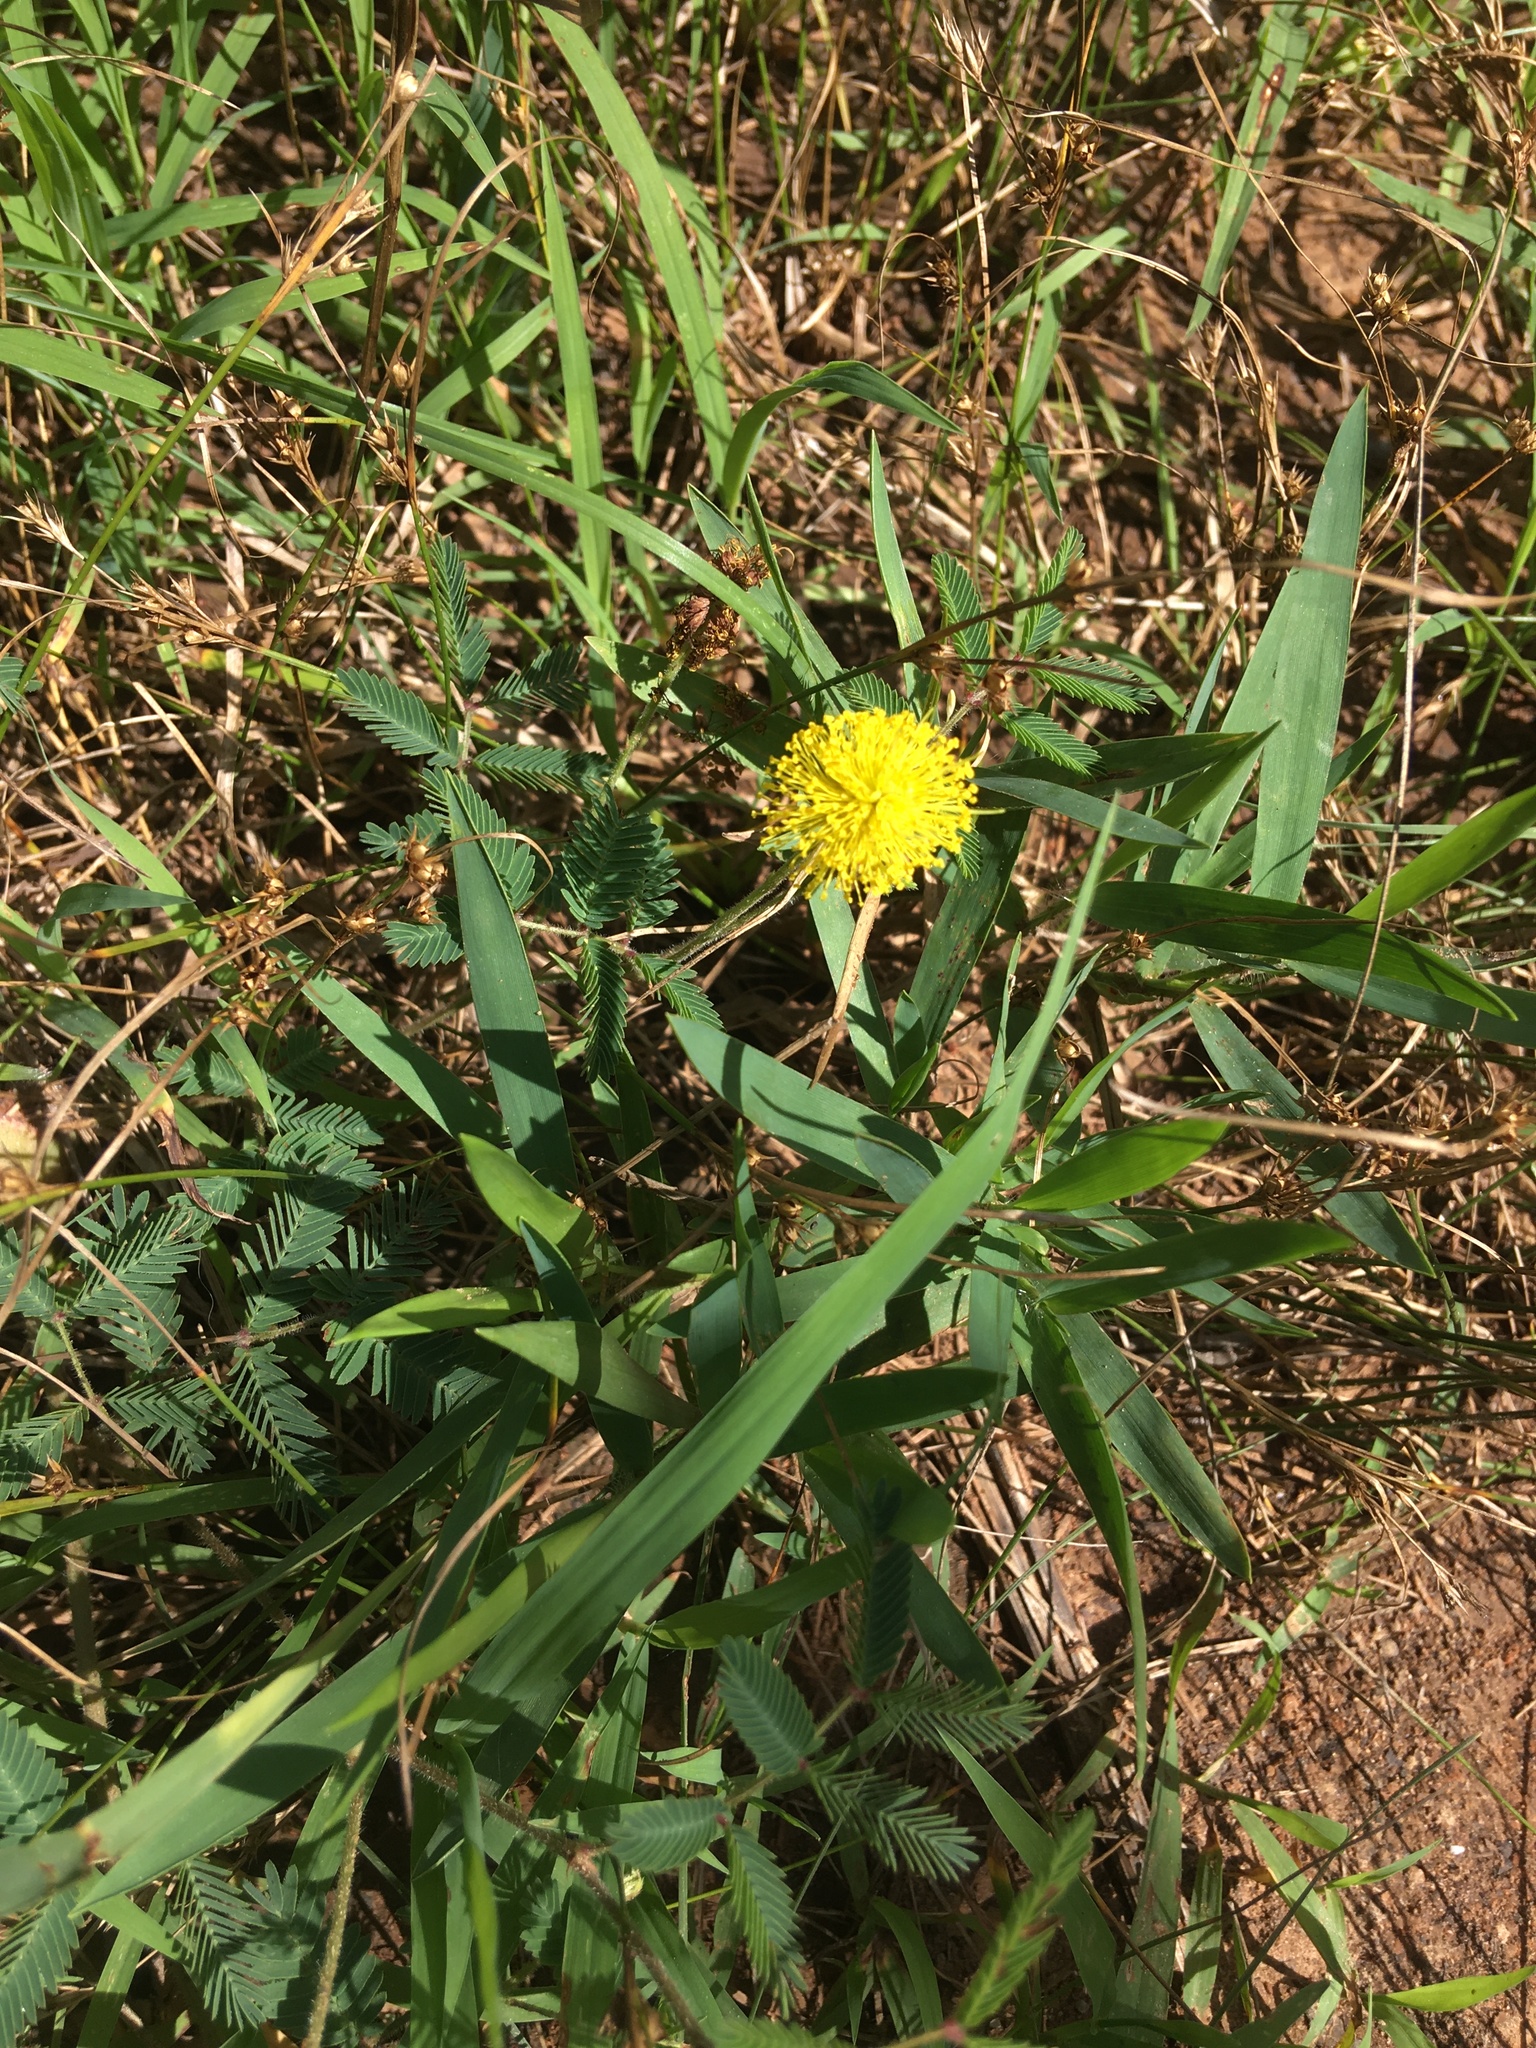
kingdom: Plantae
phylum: Tracheophyta
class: Magnoliopsida
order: Fabales
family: Fabaceae
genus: Neptunia
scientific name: Neptunia lutea
